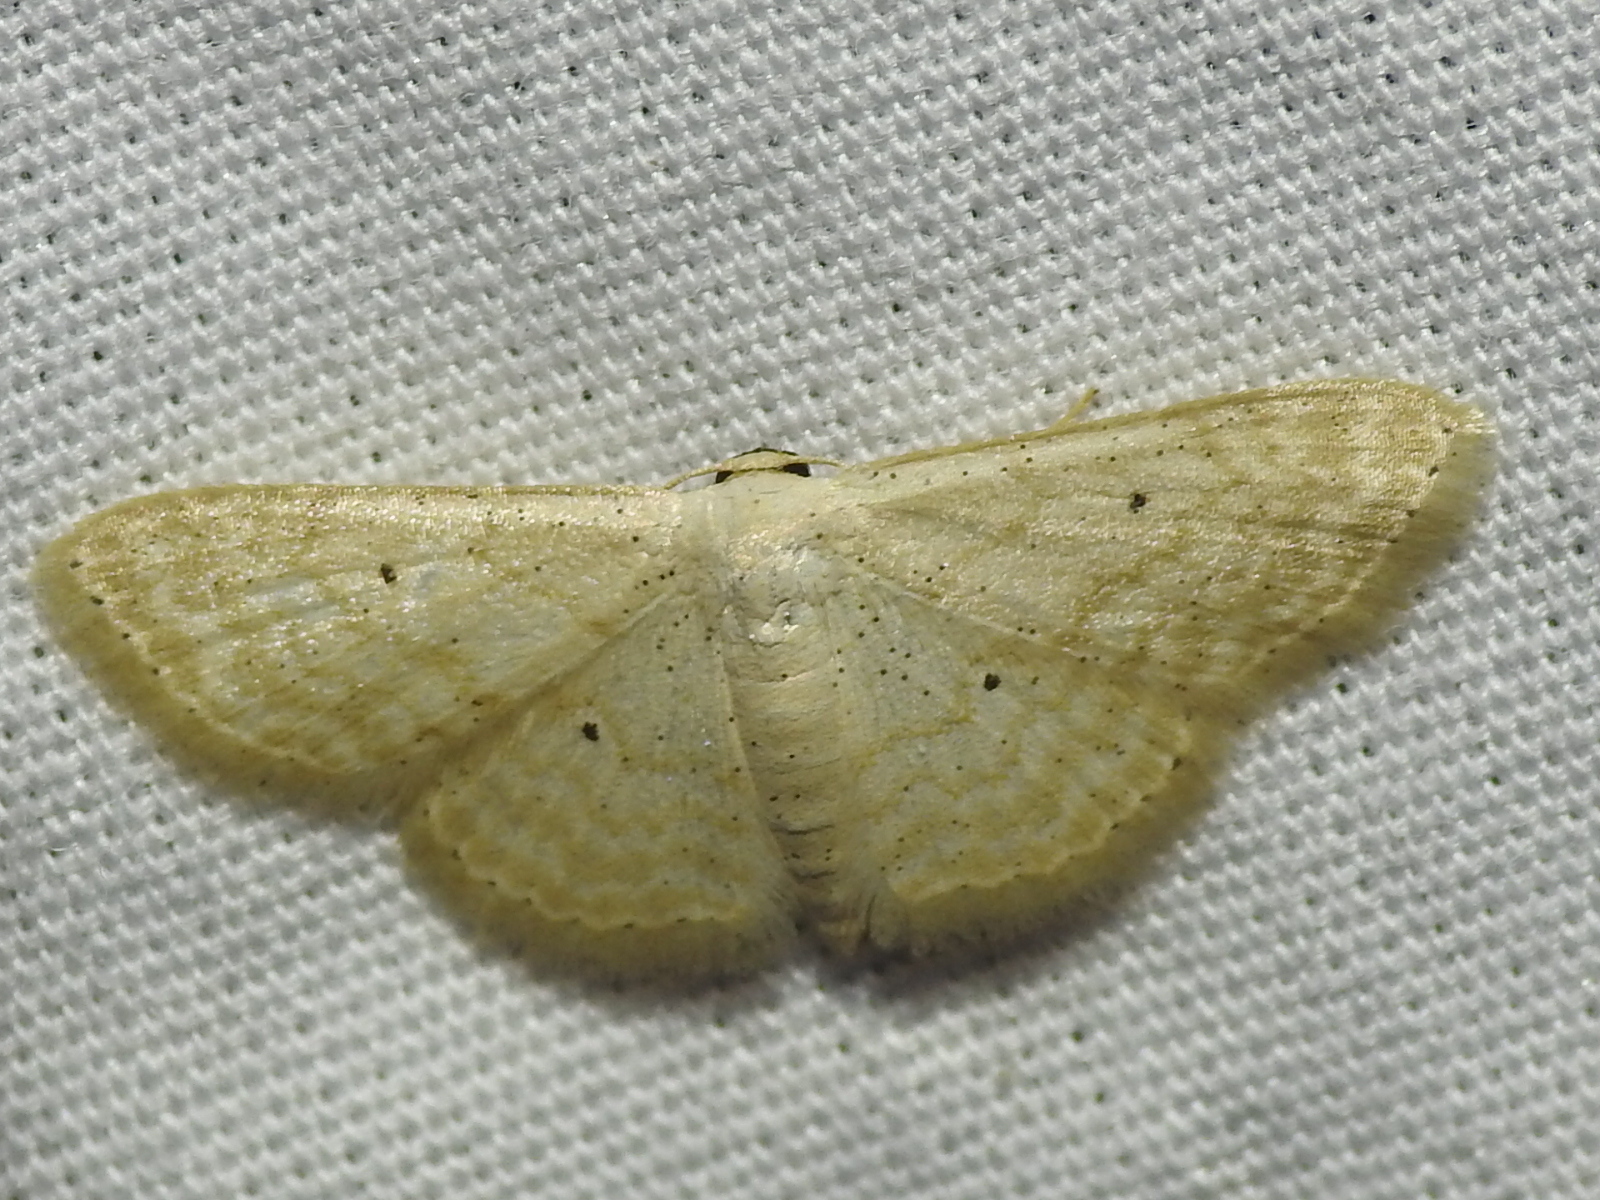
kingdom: Animalia
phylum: Arthropoda
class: Insecta
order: Lepidoptera
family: Geometridae
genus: Scopula
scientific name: Scopula benitaria
